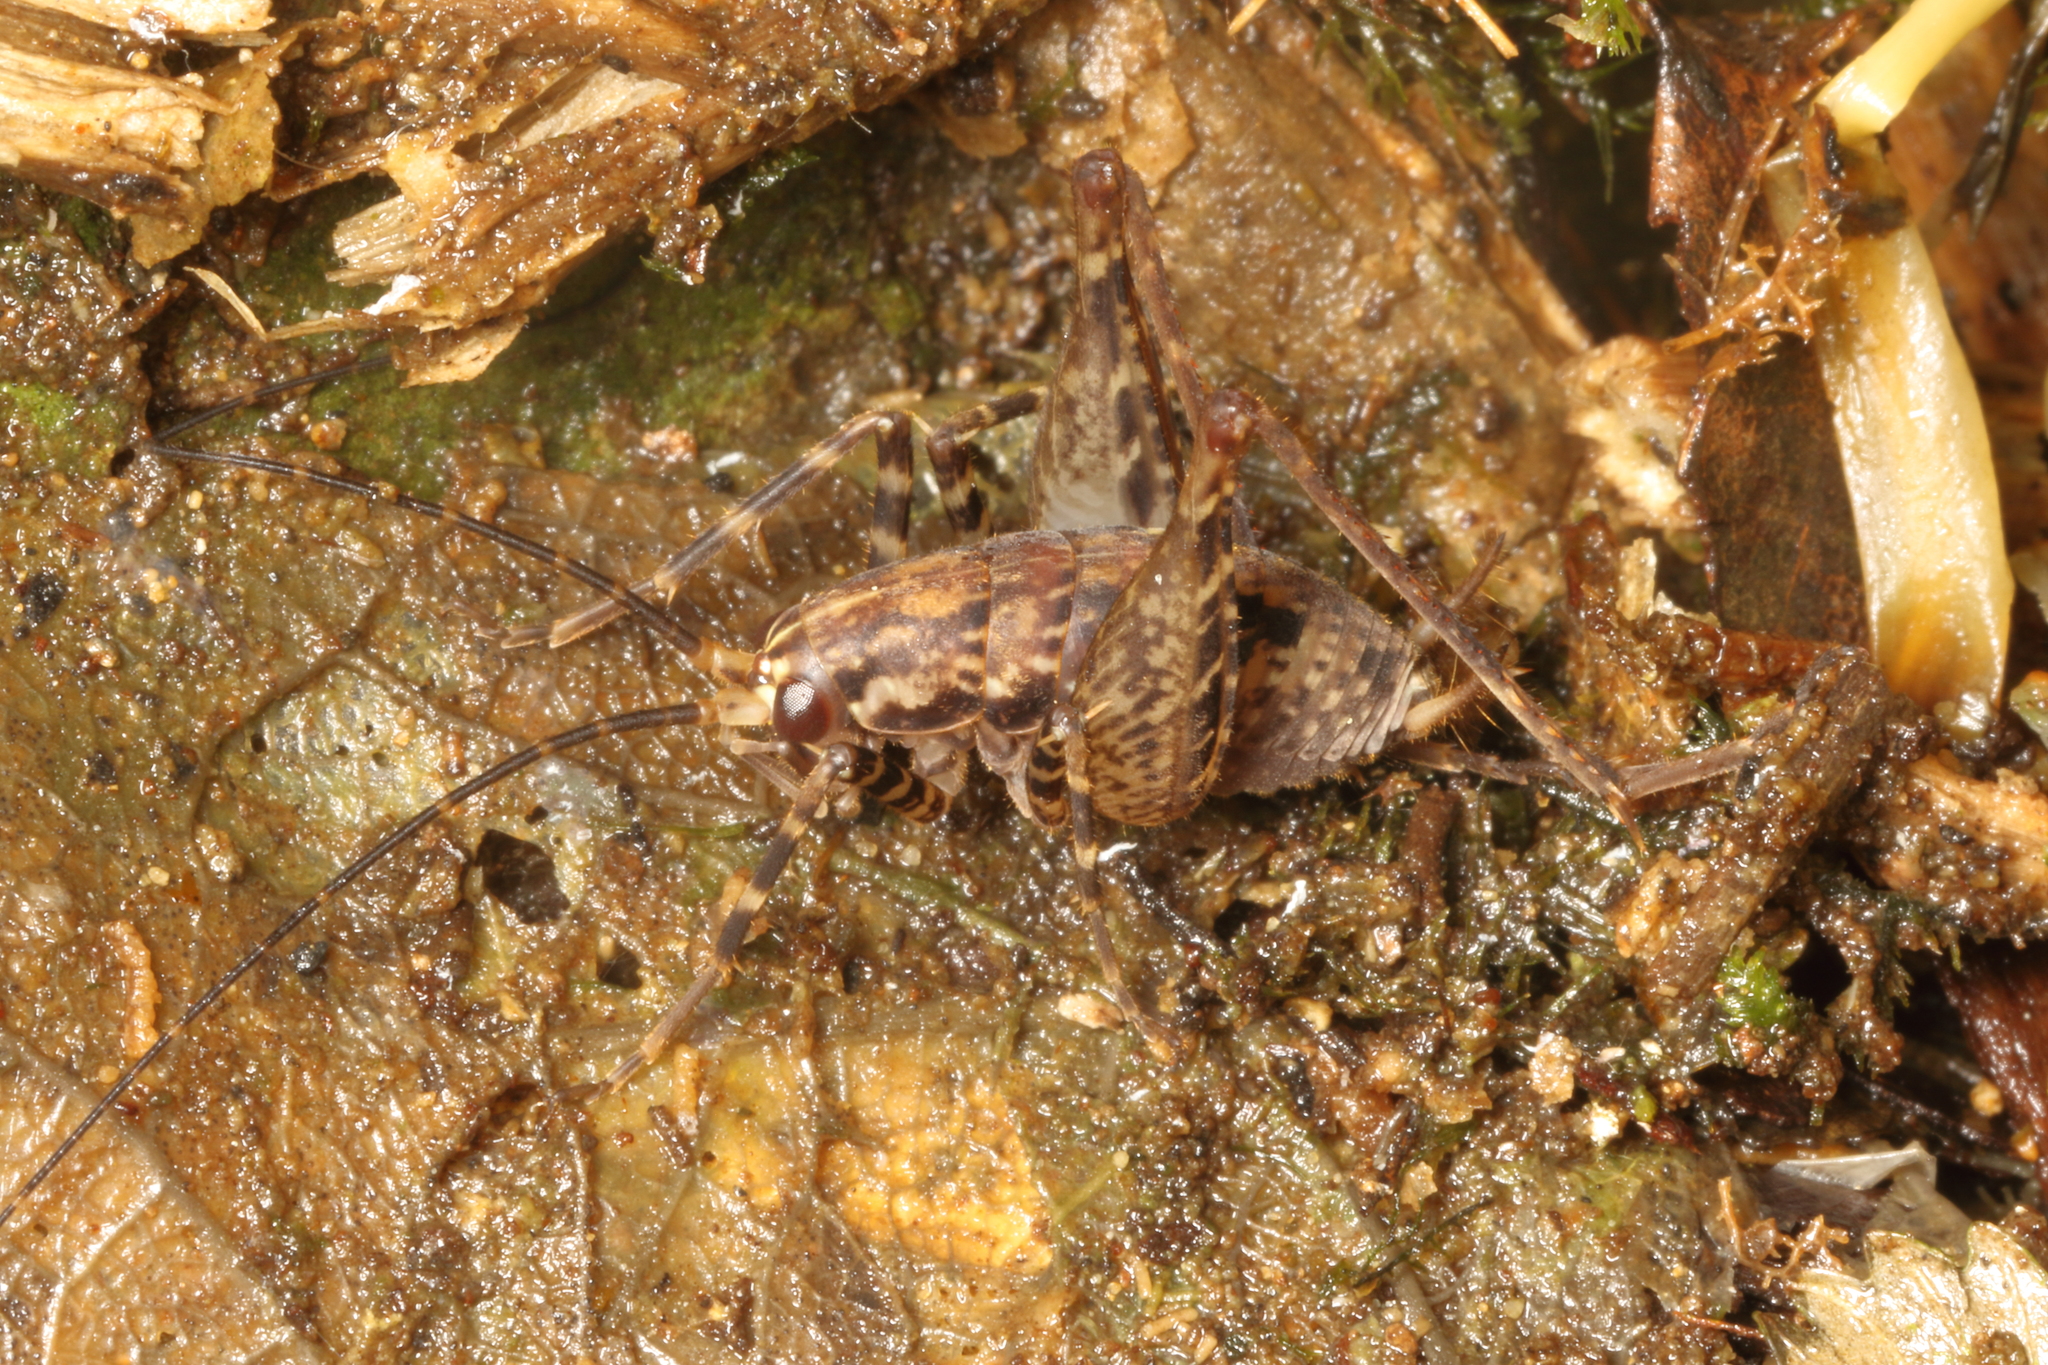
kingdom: Animalia
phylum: Arthropoda
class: Insecta
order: Orthoptera
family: Rhaphidophoridae
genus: Pleioplectron
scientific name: Pleioplectron hudsoni
